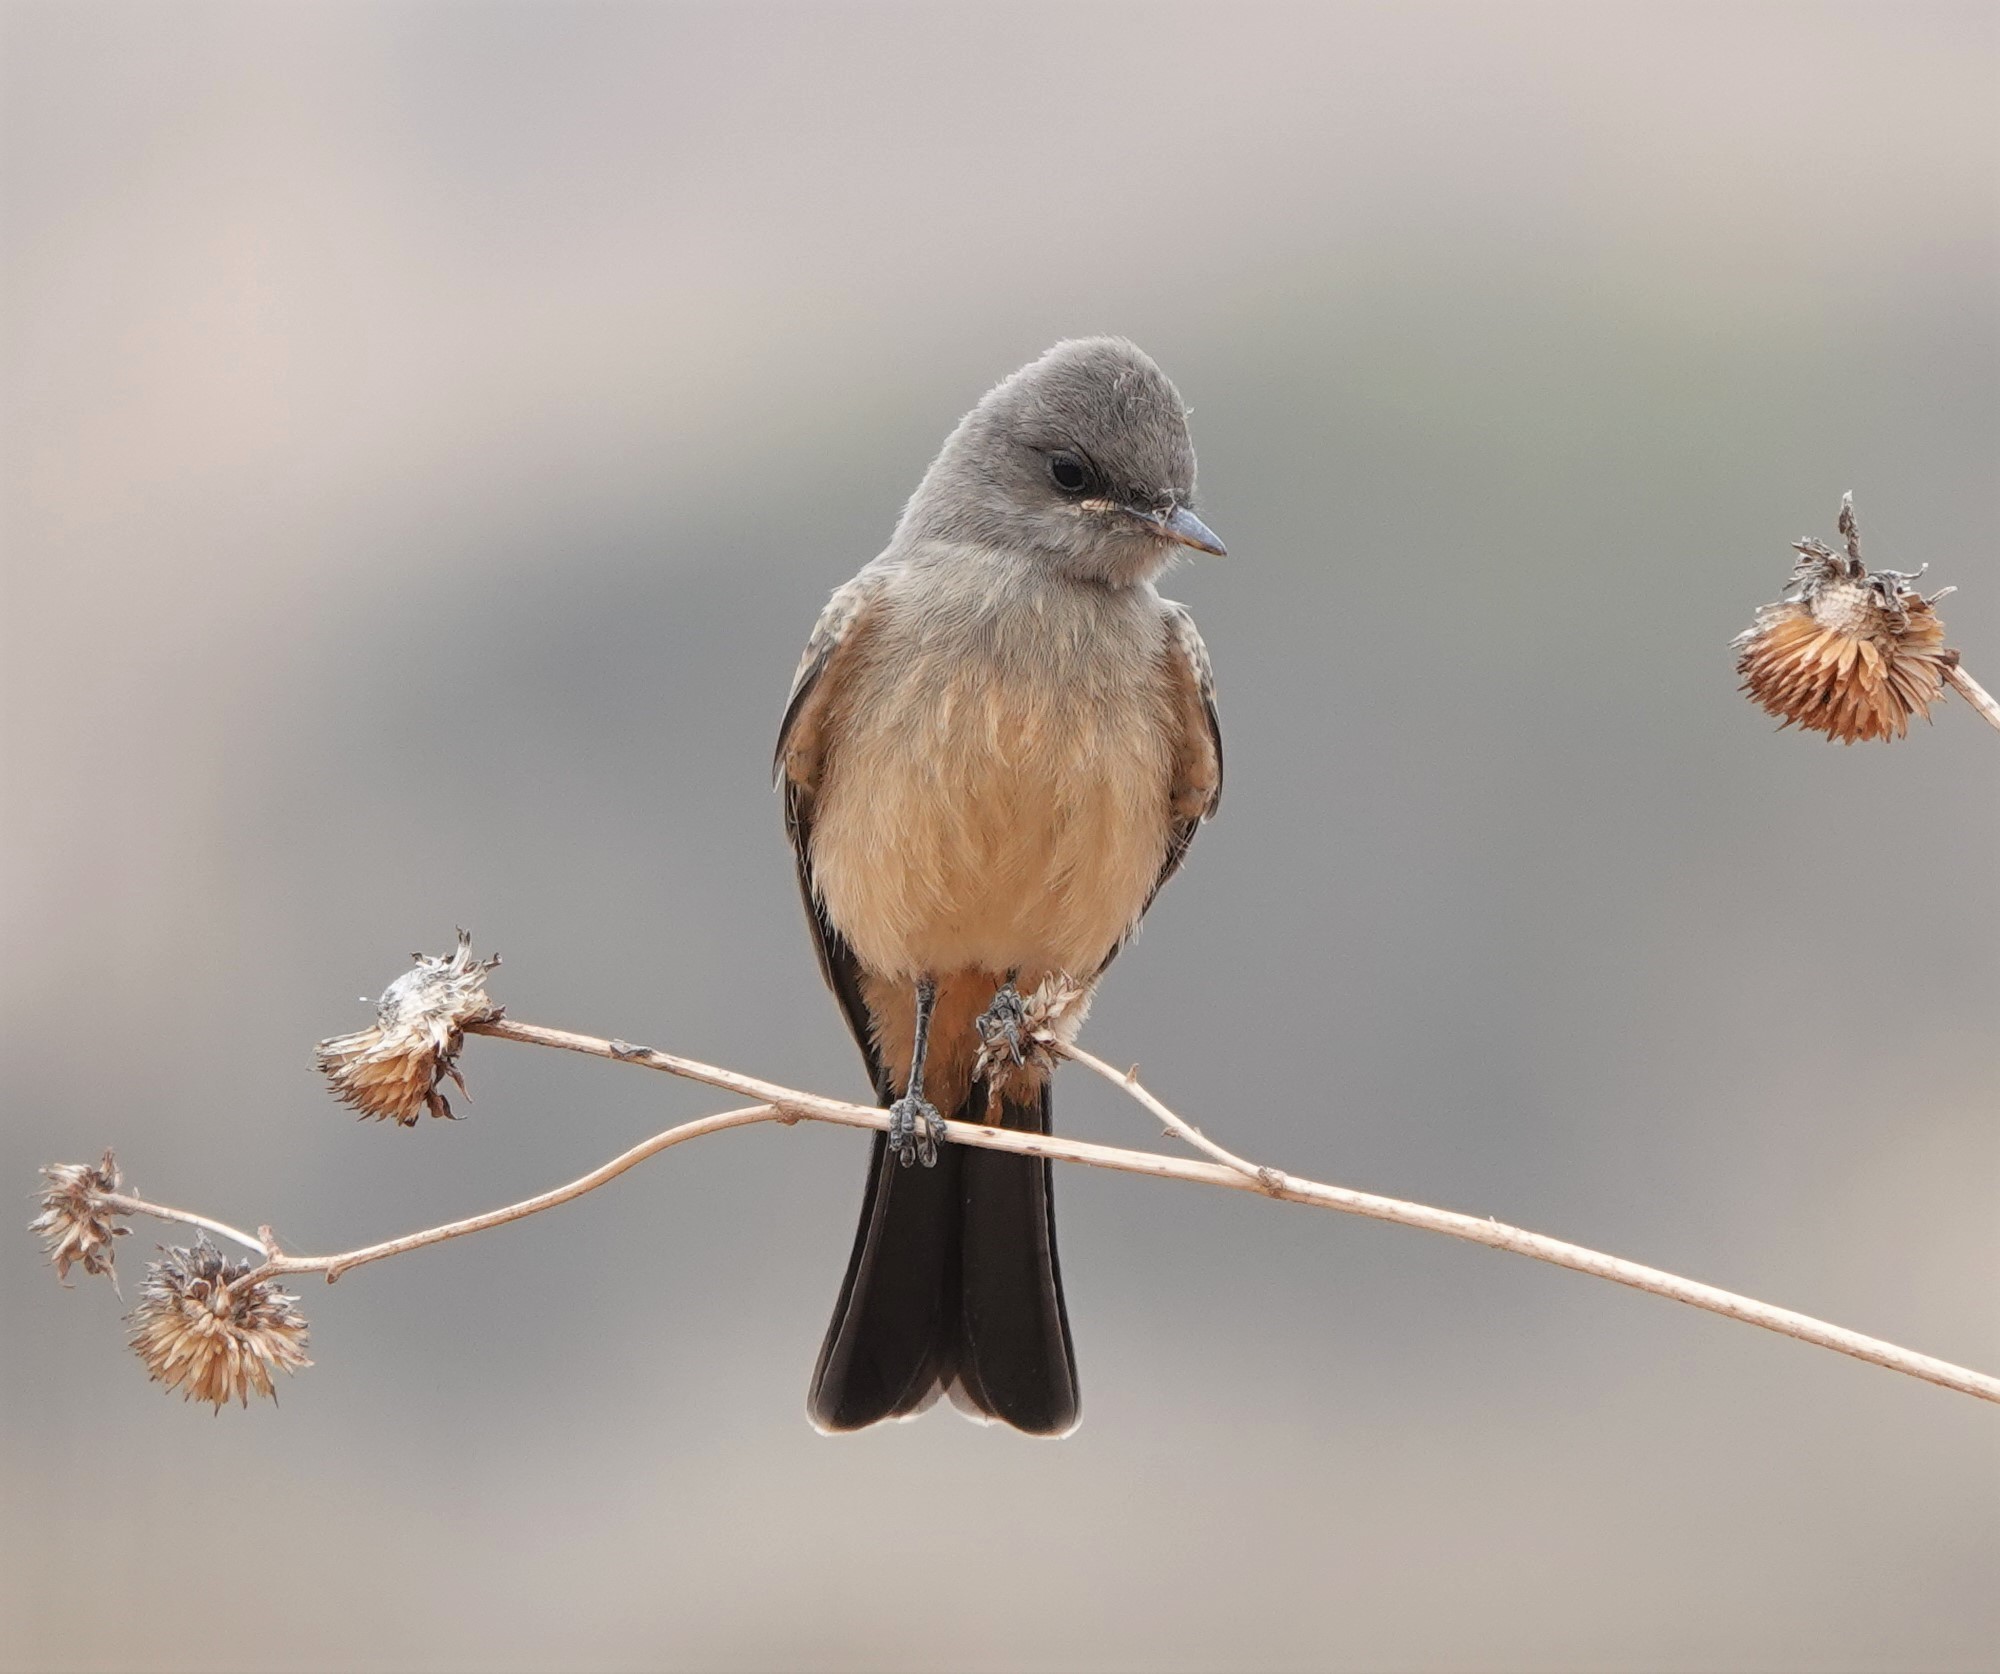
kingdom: Animalia
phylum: Chordata
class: Aves
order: Passeriformes
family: Tyrannidae
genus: Sayornis
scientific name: Sayornis saya
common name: Say's phoebe
